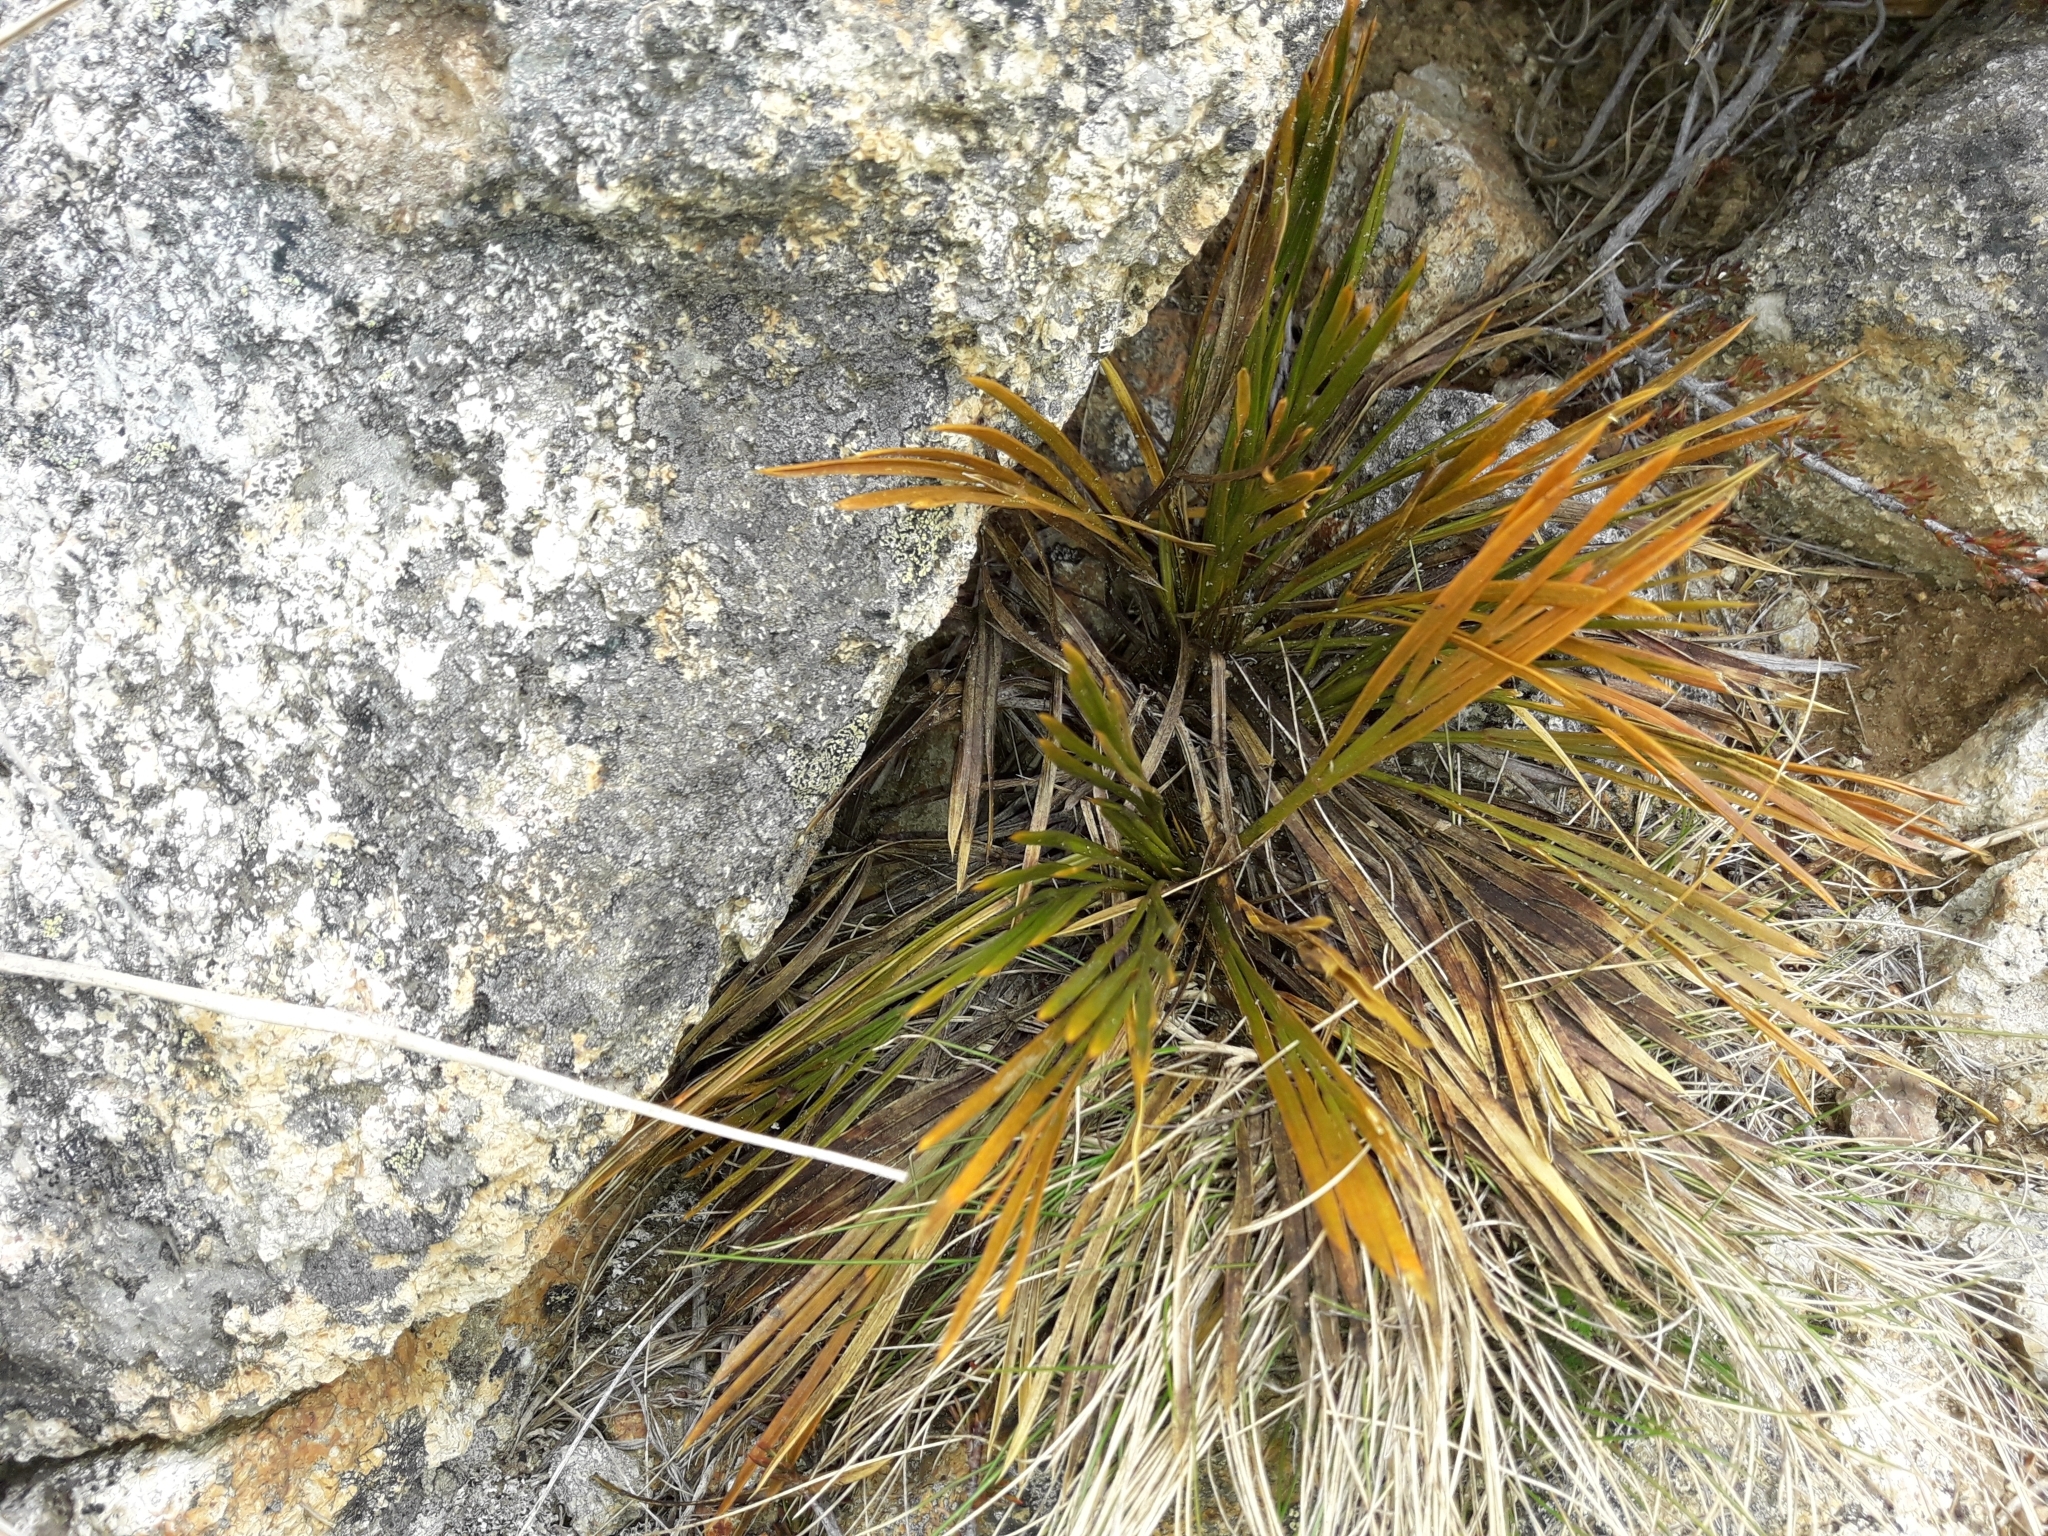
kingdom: Plantae
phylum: Tracheophyta
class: Magnoliopsida
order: Apiales
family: Apiaceae
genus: Aciphylla
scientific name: Aciphylla montana
